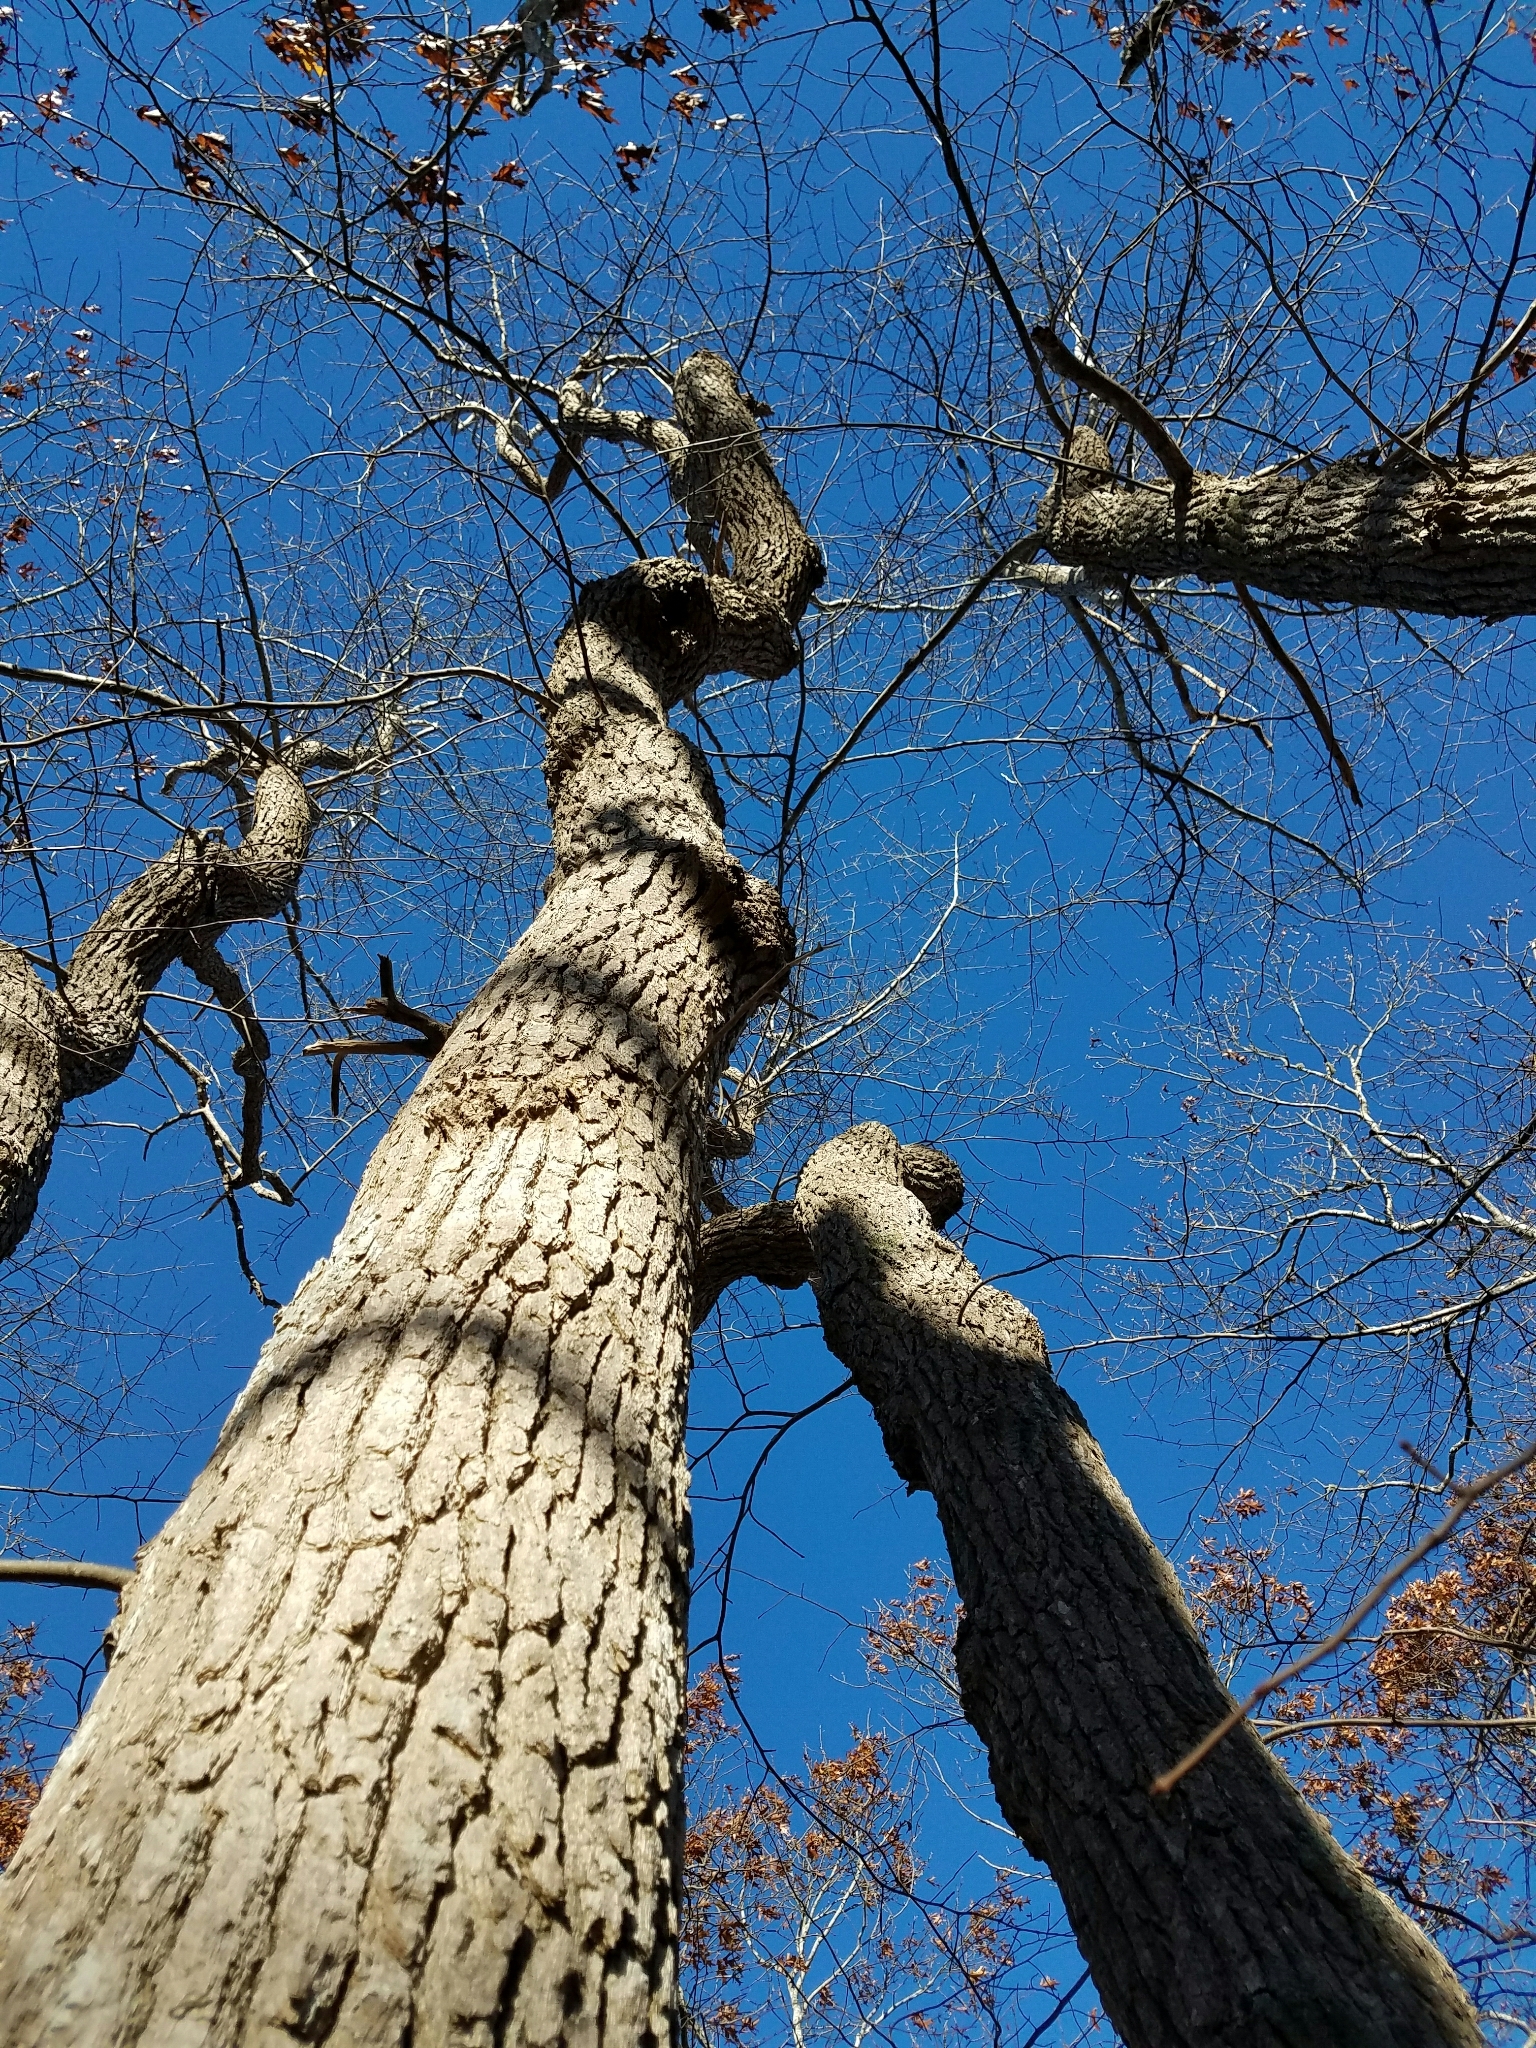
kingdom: Plantae
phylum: Tracheophyta
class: Magnoliopsida
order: Cornales
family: Nyssaceae
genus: Nyssa
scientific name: Nyssa sylvatica
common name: Black tupelo
